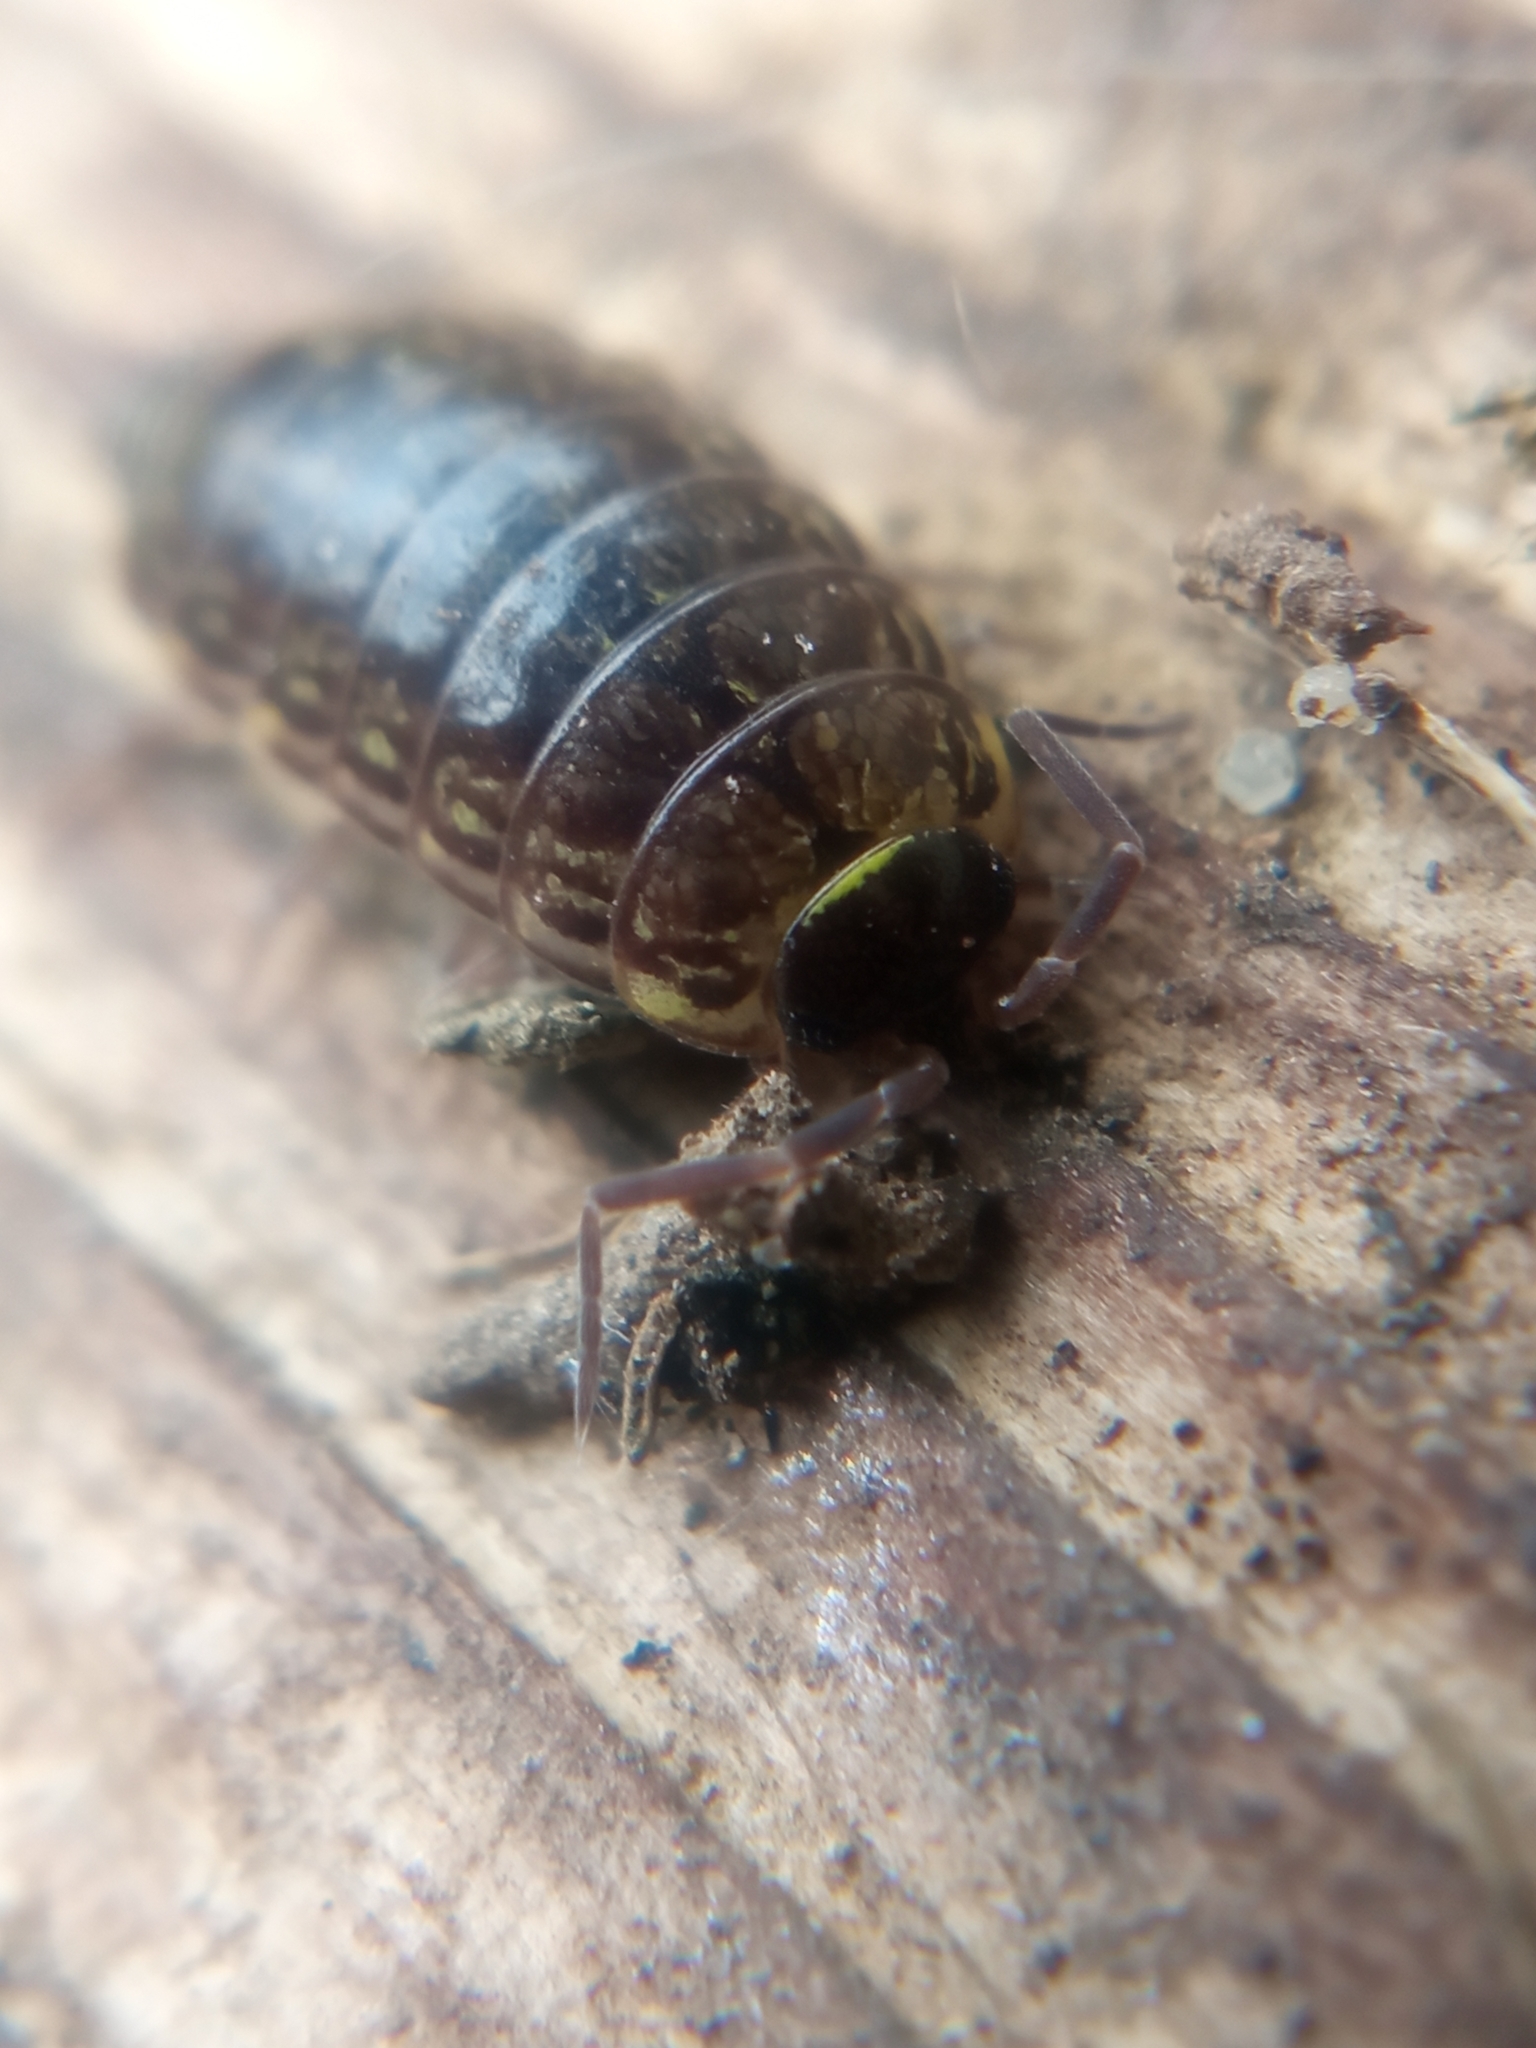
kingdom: Animalia
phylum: Arthropoda
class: Malacostraca
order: Isopoda
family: Philosciidae
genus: Philoscia
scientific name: Philoscia muscorum
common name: Common striped woodlouse
